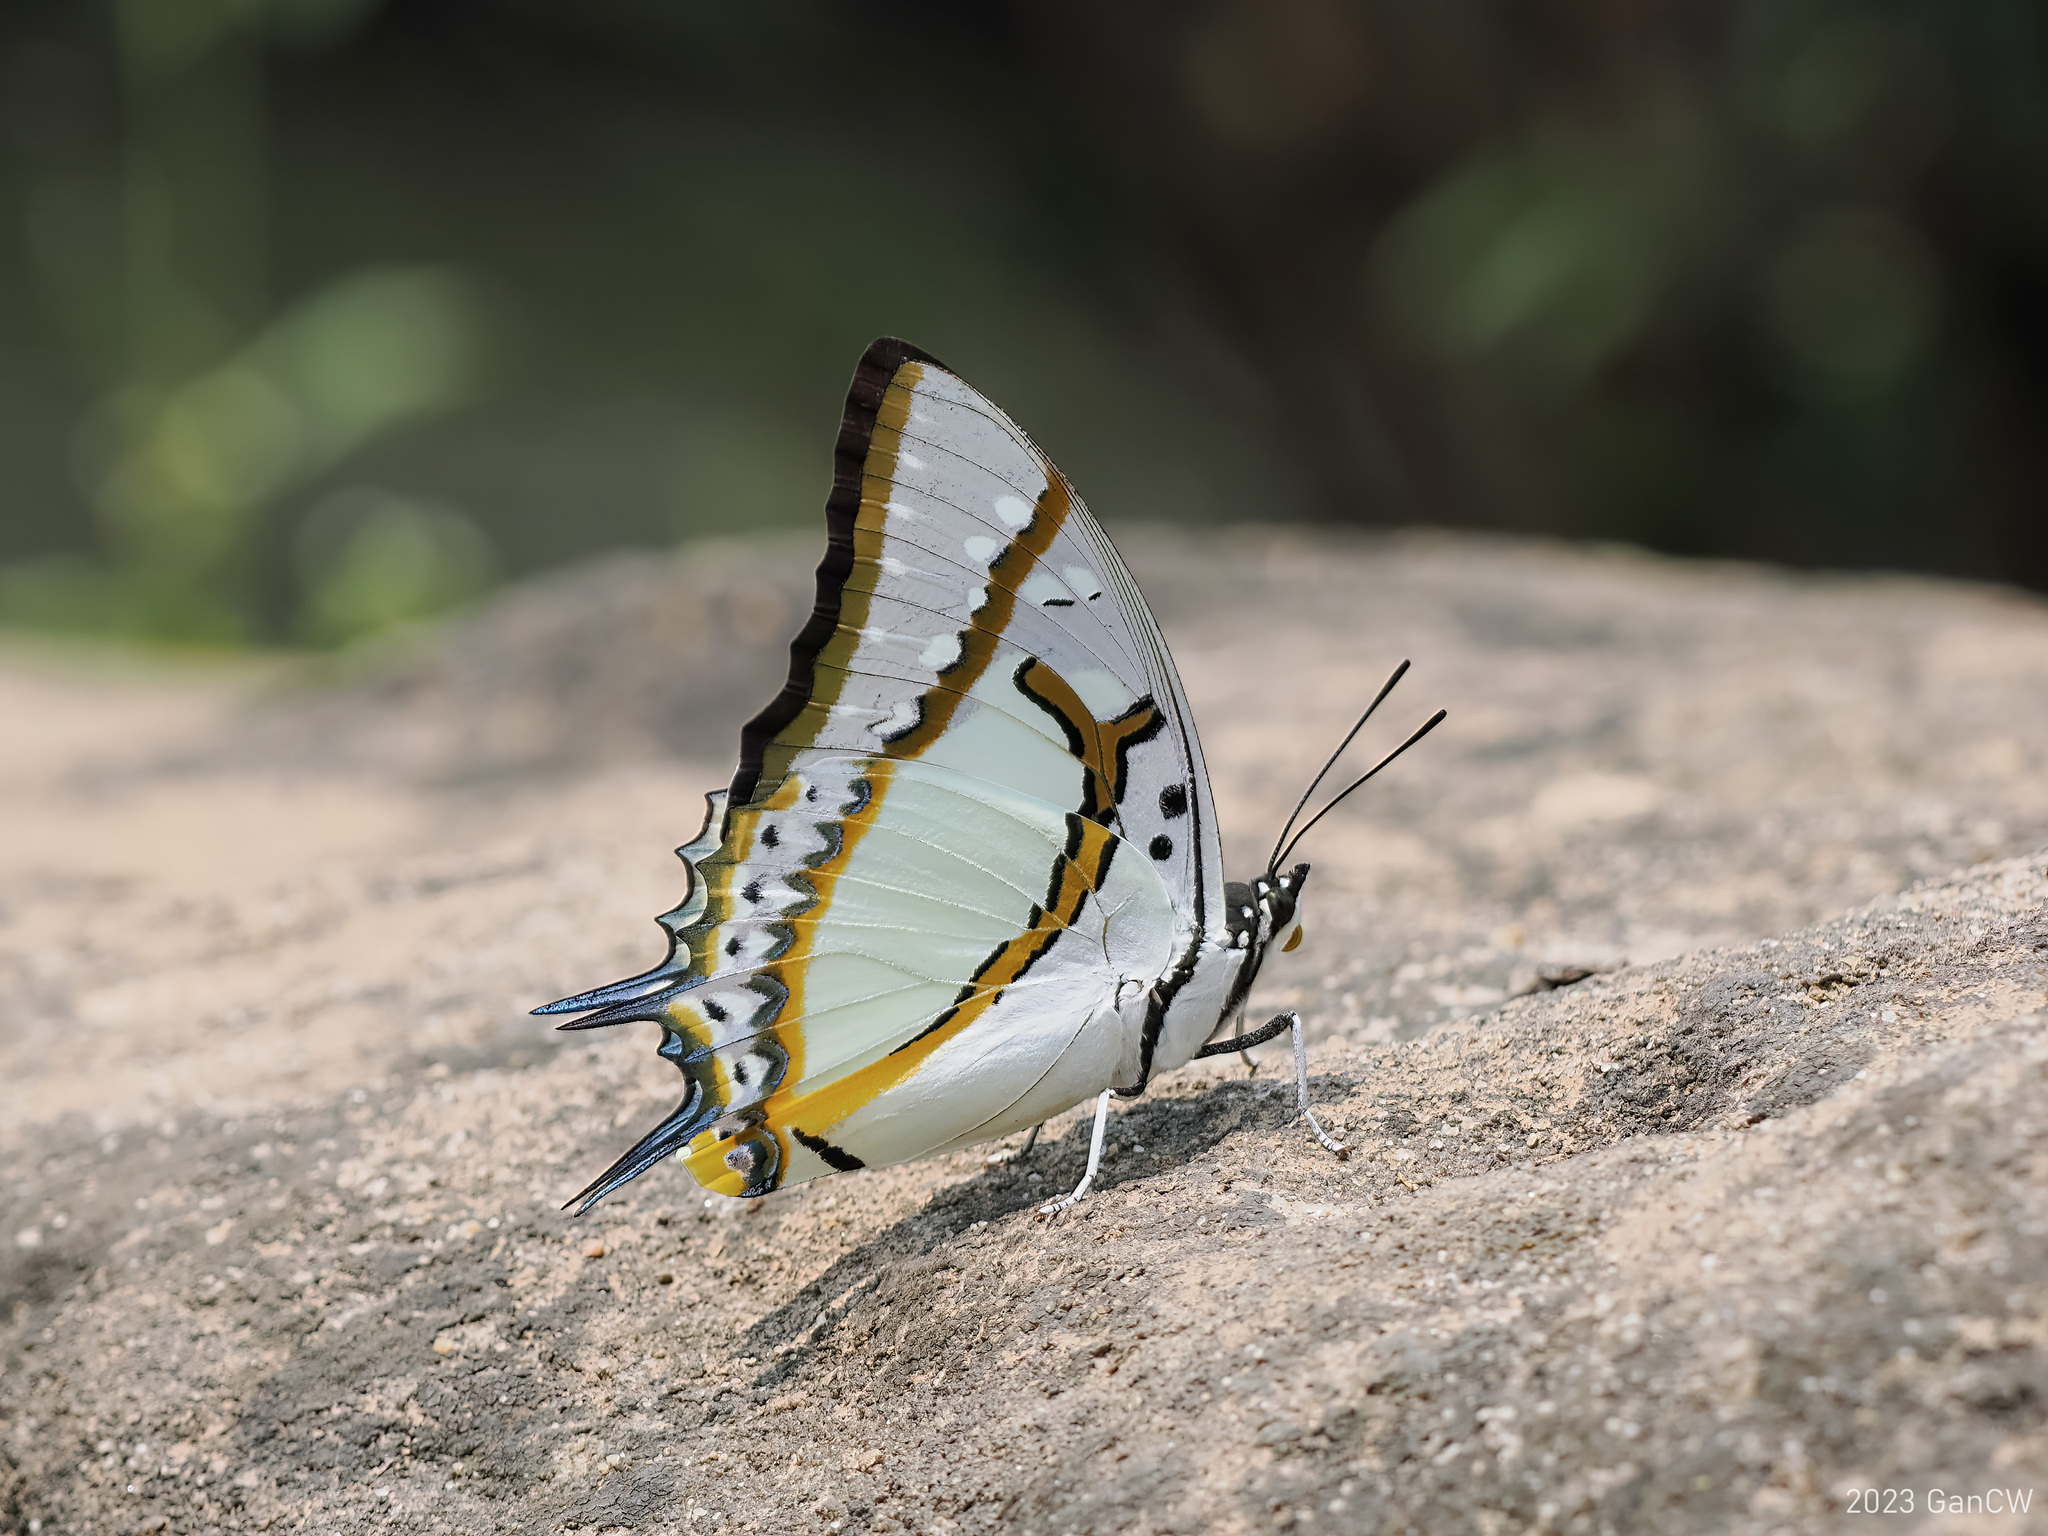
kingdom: Animalia
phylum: Arthropoda
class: Insecta
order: Lepidoptera
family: Nymphalidae
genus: Polyura
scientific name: Polyura eudamippus
